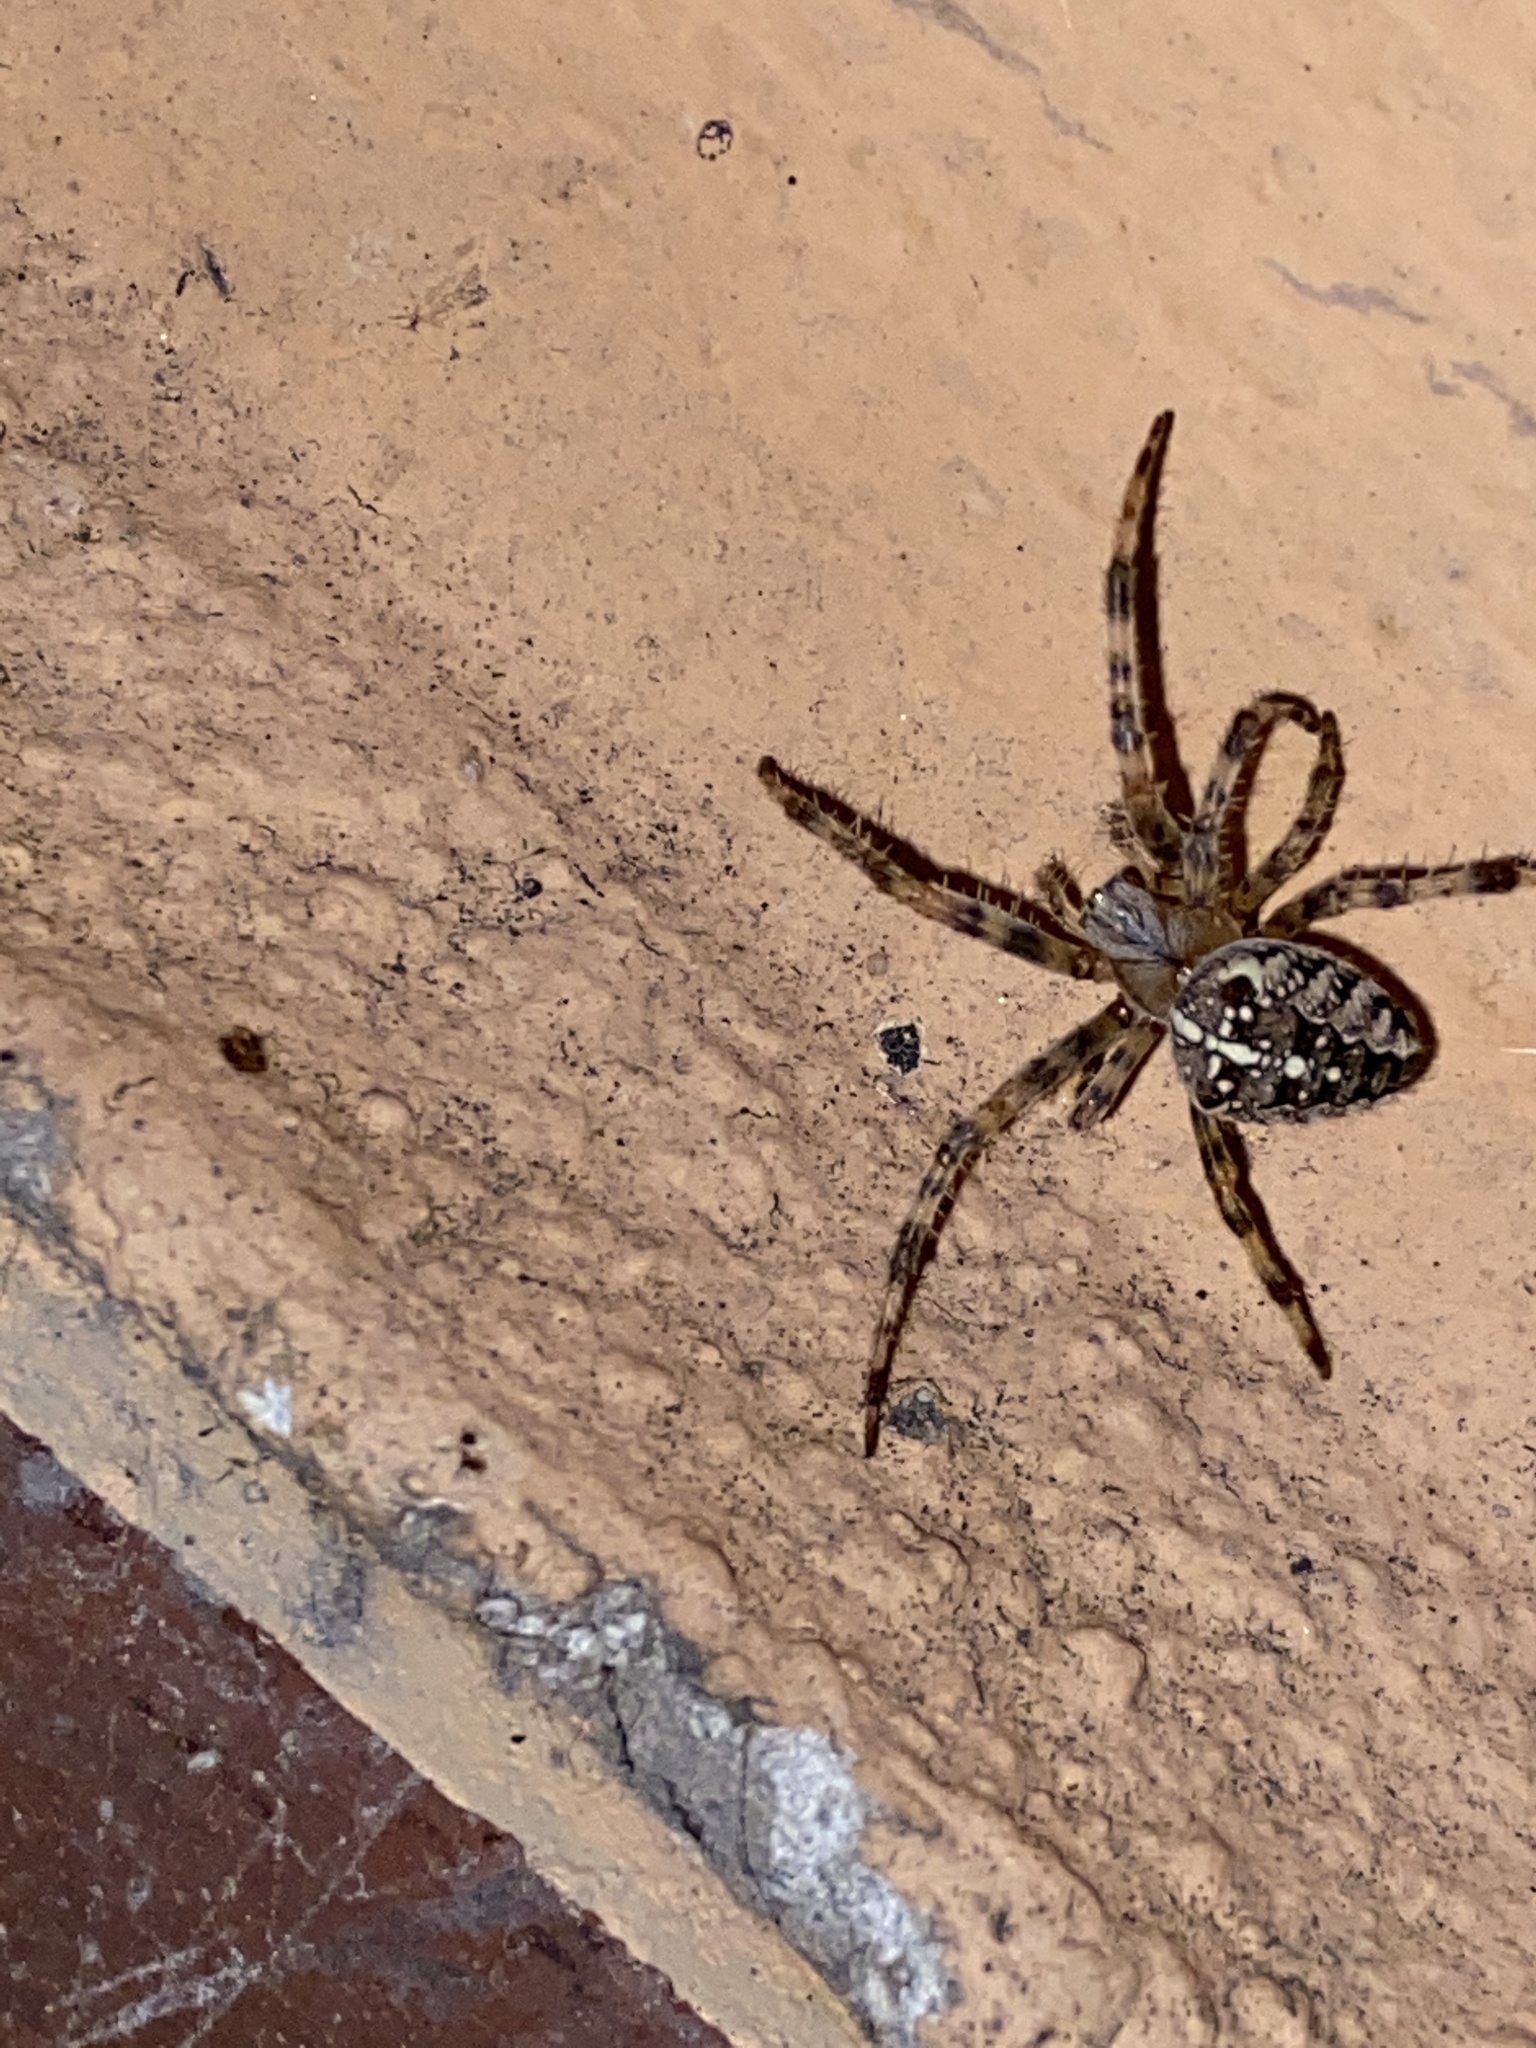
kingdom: Animalia
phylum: Arthropoda
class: Arachnida
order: Araneae
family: Araneidae
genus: Araneus
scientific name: Araneus diadematus
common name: Cross orbweaver
